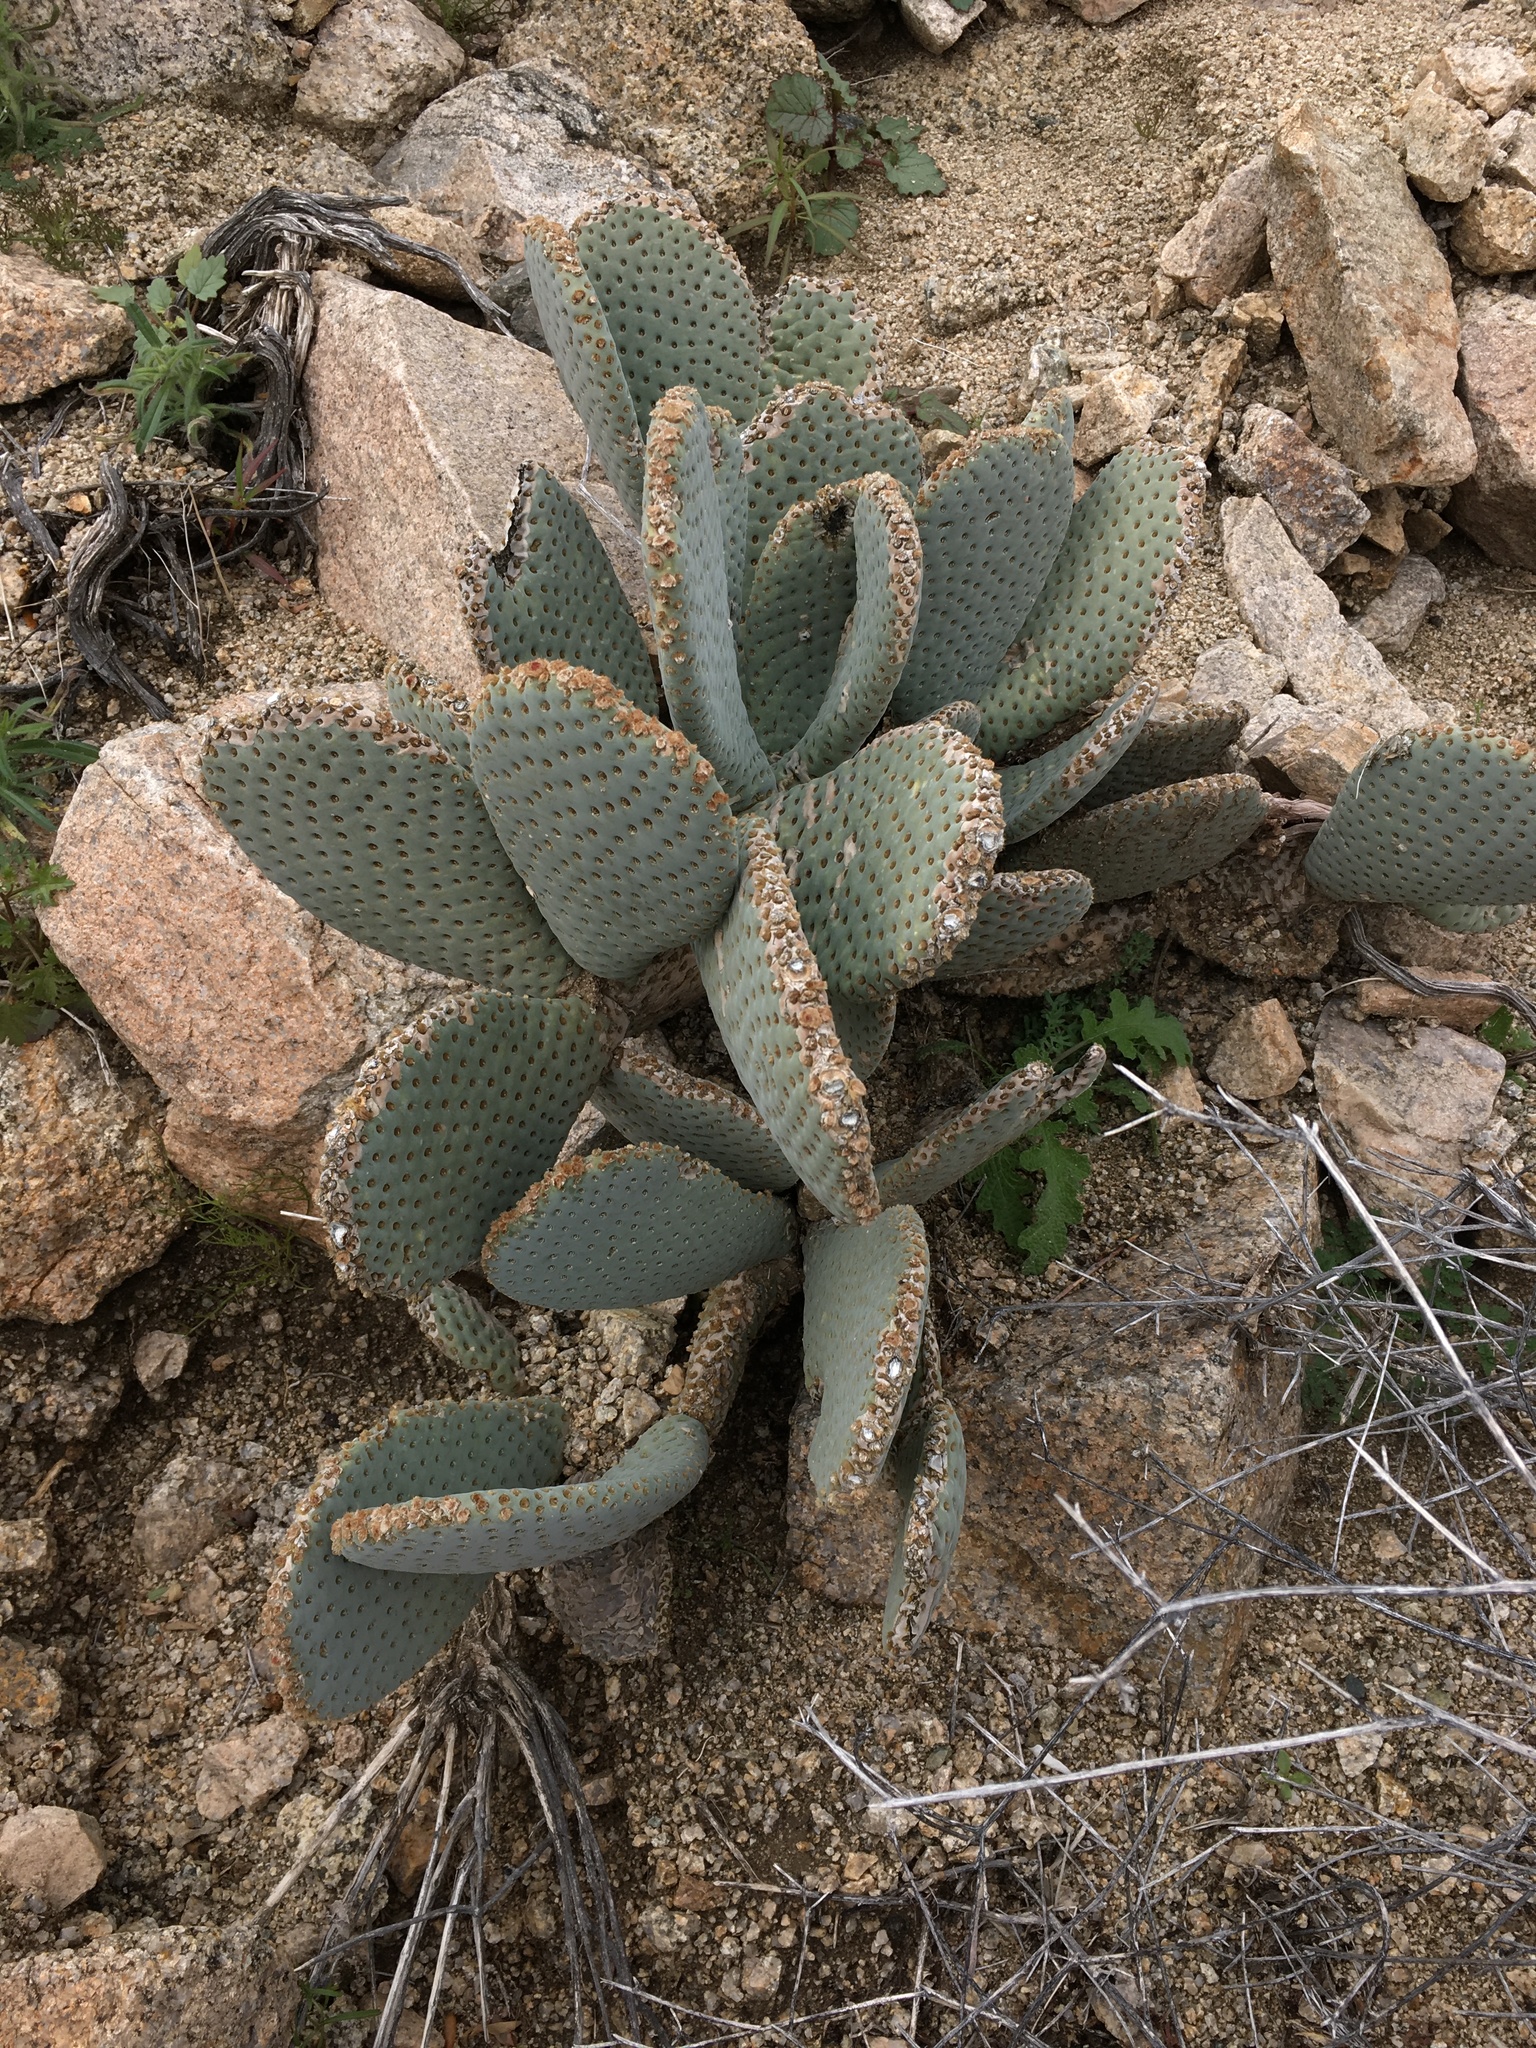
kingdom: Plantae
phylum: Tracheophyta
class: Magnoliopsida
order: Caryophyllales
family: Cactaceae
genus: Opuntia
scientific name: Opuntia basilaris
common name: Beavertail prickly-pear
